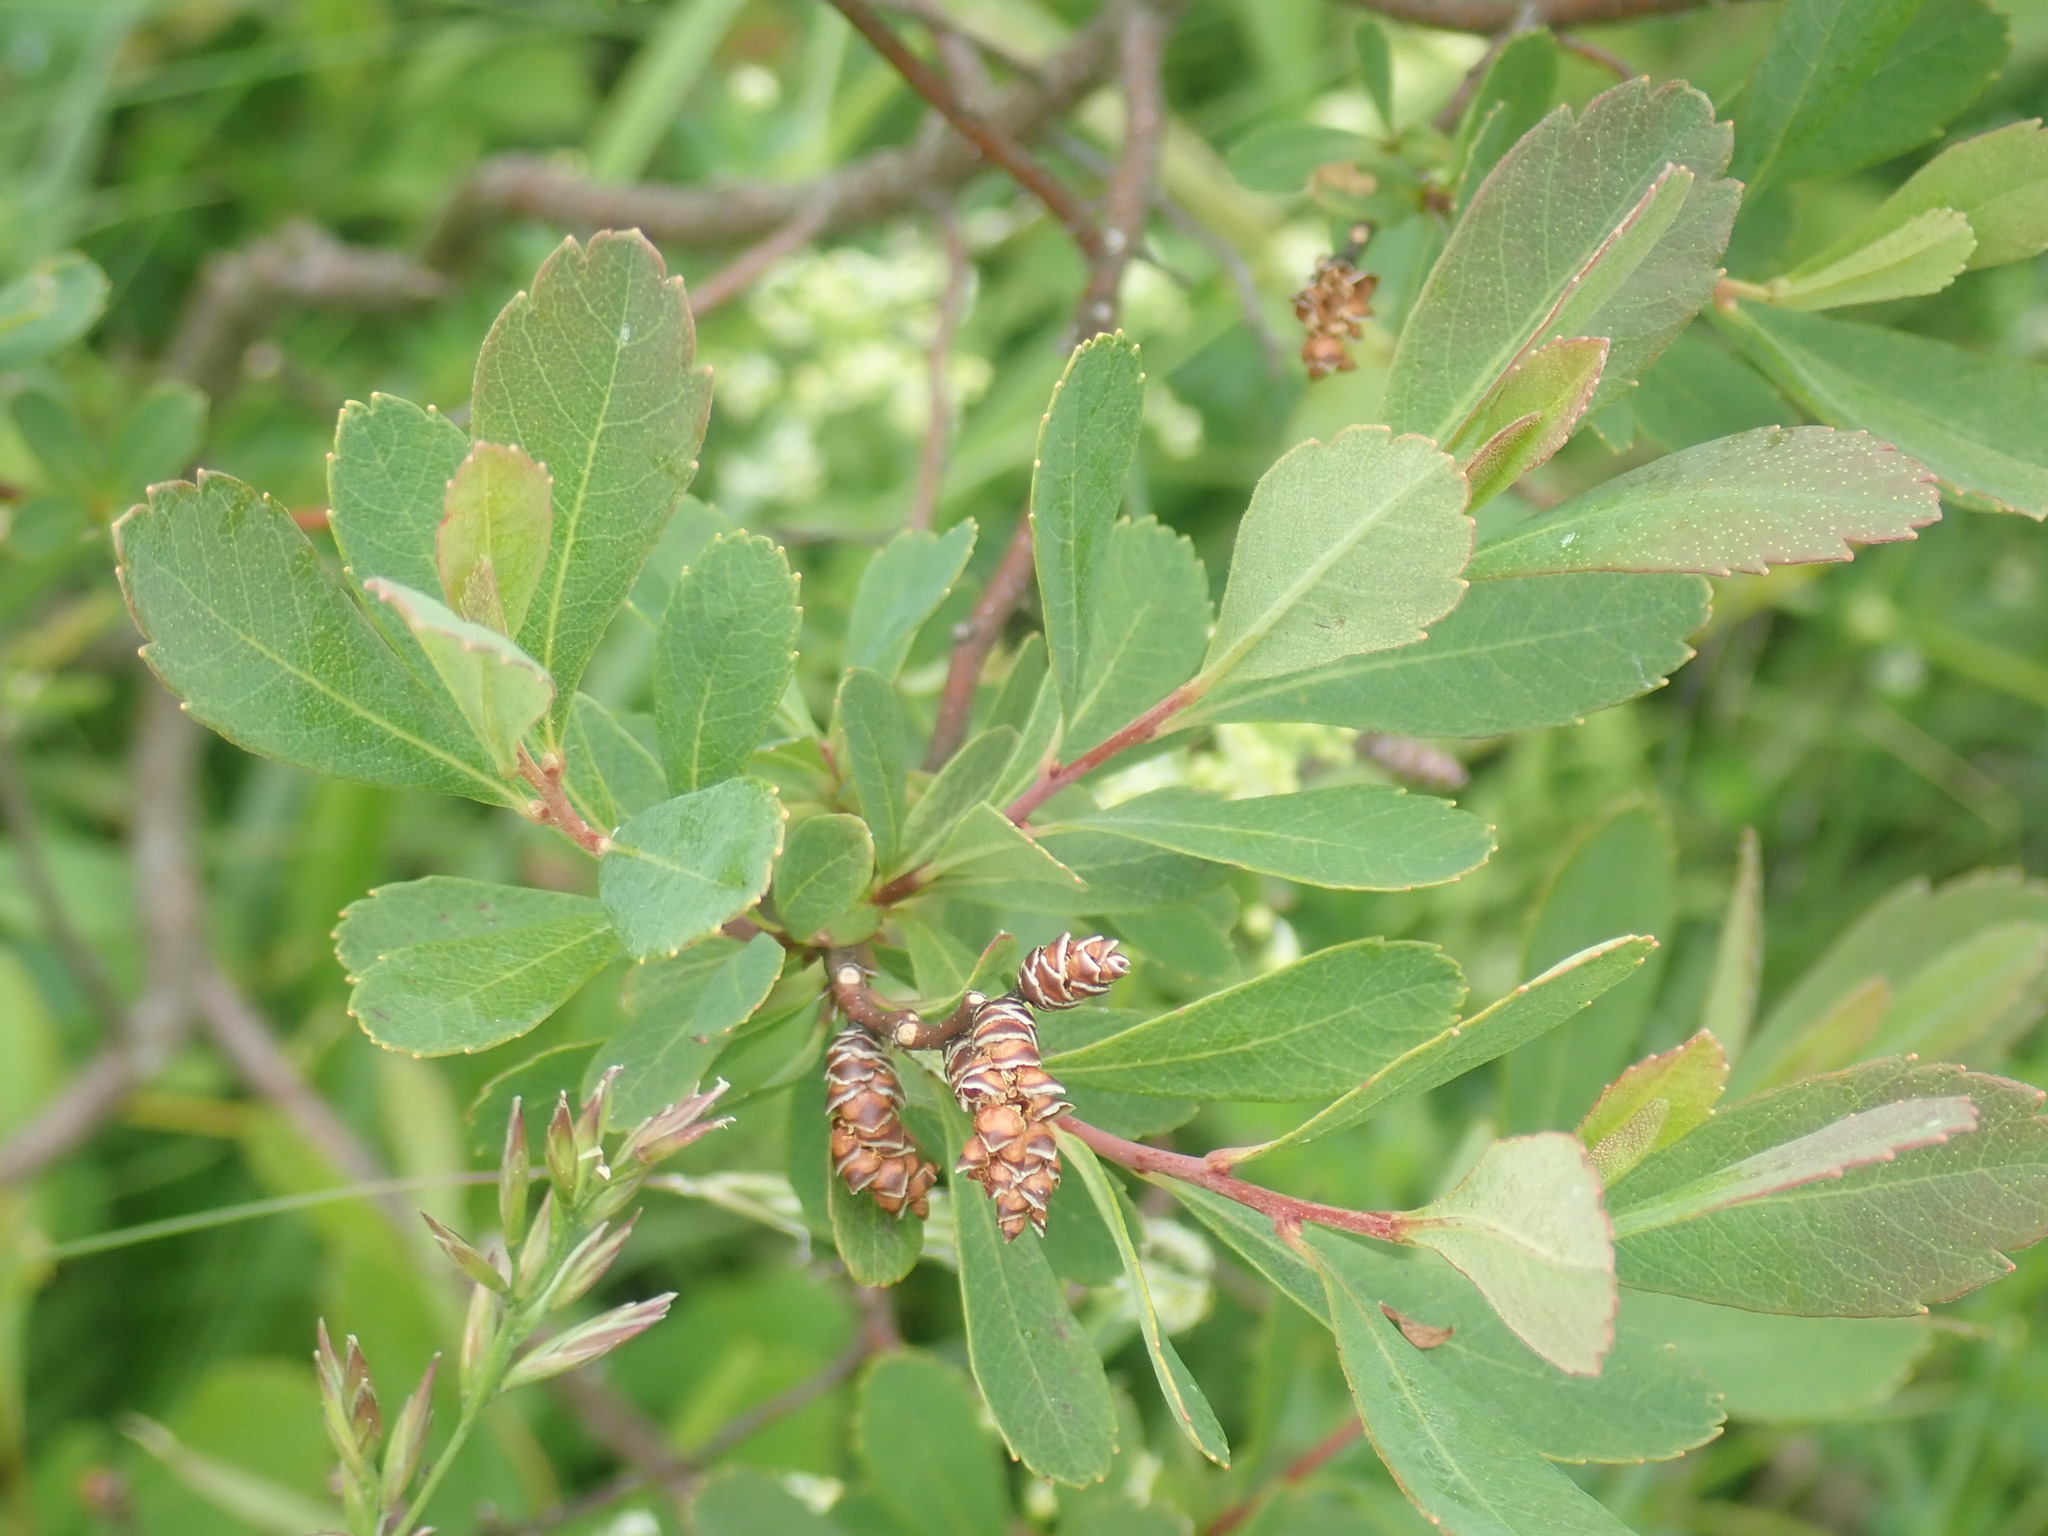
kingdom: Plantae
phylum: Tracheophyta
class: Magnoliopsida
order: Fagales
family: Myricaceae
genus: Myrica
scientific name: Myrica gale
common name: Sweet gale
